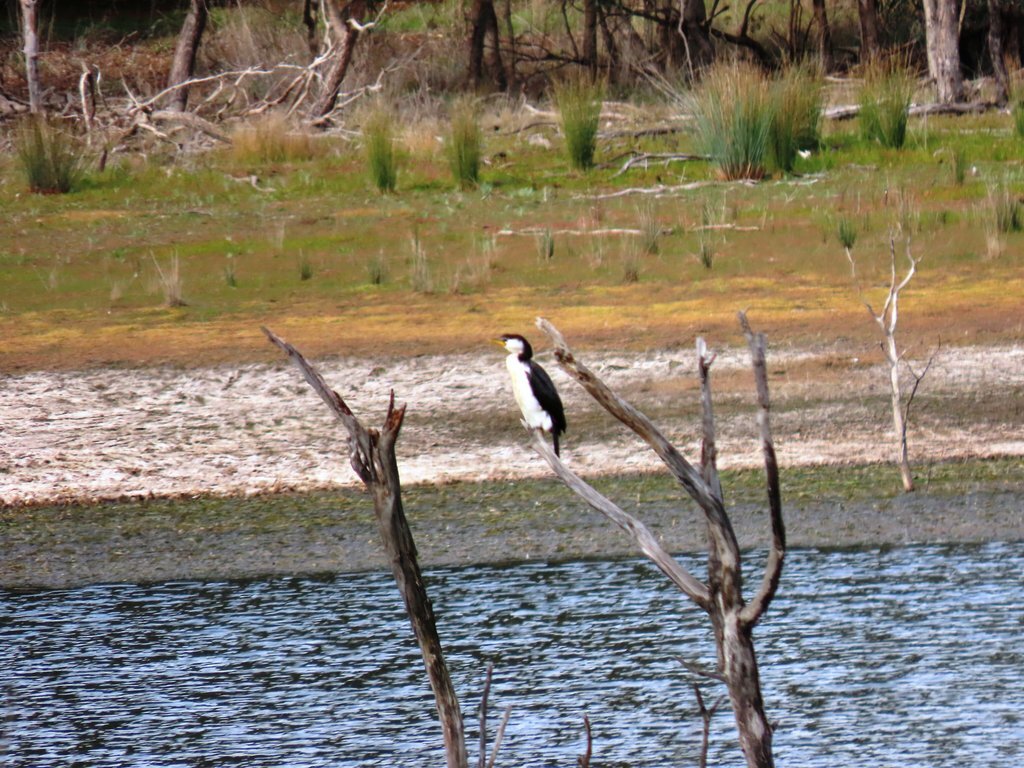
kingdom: Animalia
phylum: Chordata
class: Aves
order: Suliformes
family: Phalacrocoracidae
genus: Microcarbo
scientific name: Microcarbo melanoleucos
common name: Little pied cormorant
